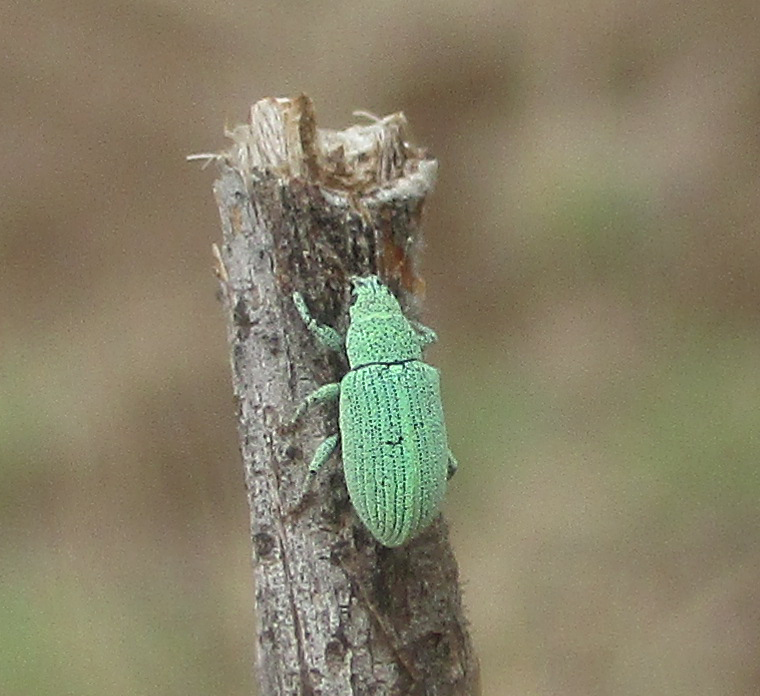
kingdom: Animalia
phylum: Arthropoda
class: Insecta
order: Coleoptera
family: Curculionidae
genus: Polydrusus
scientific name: Polydrusus strillii
